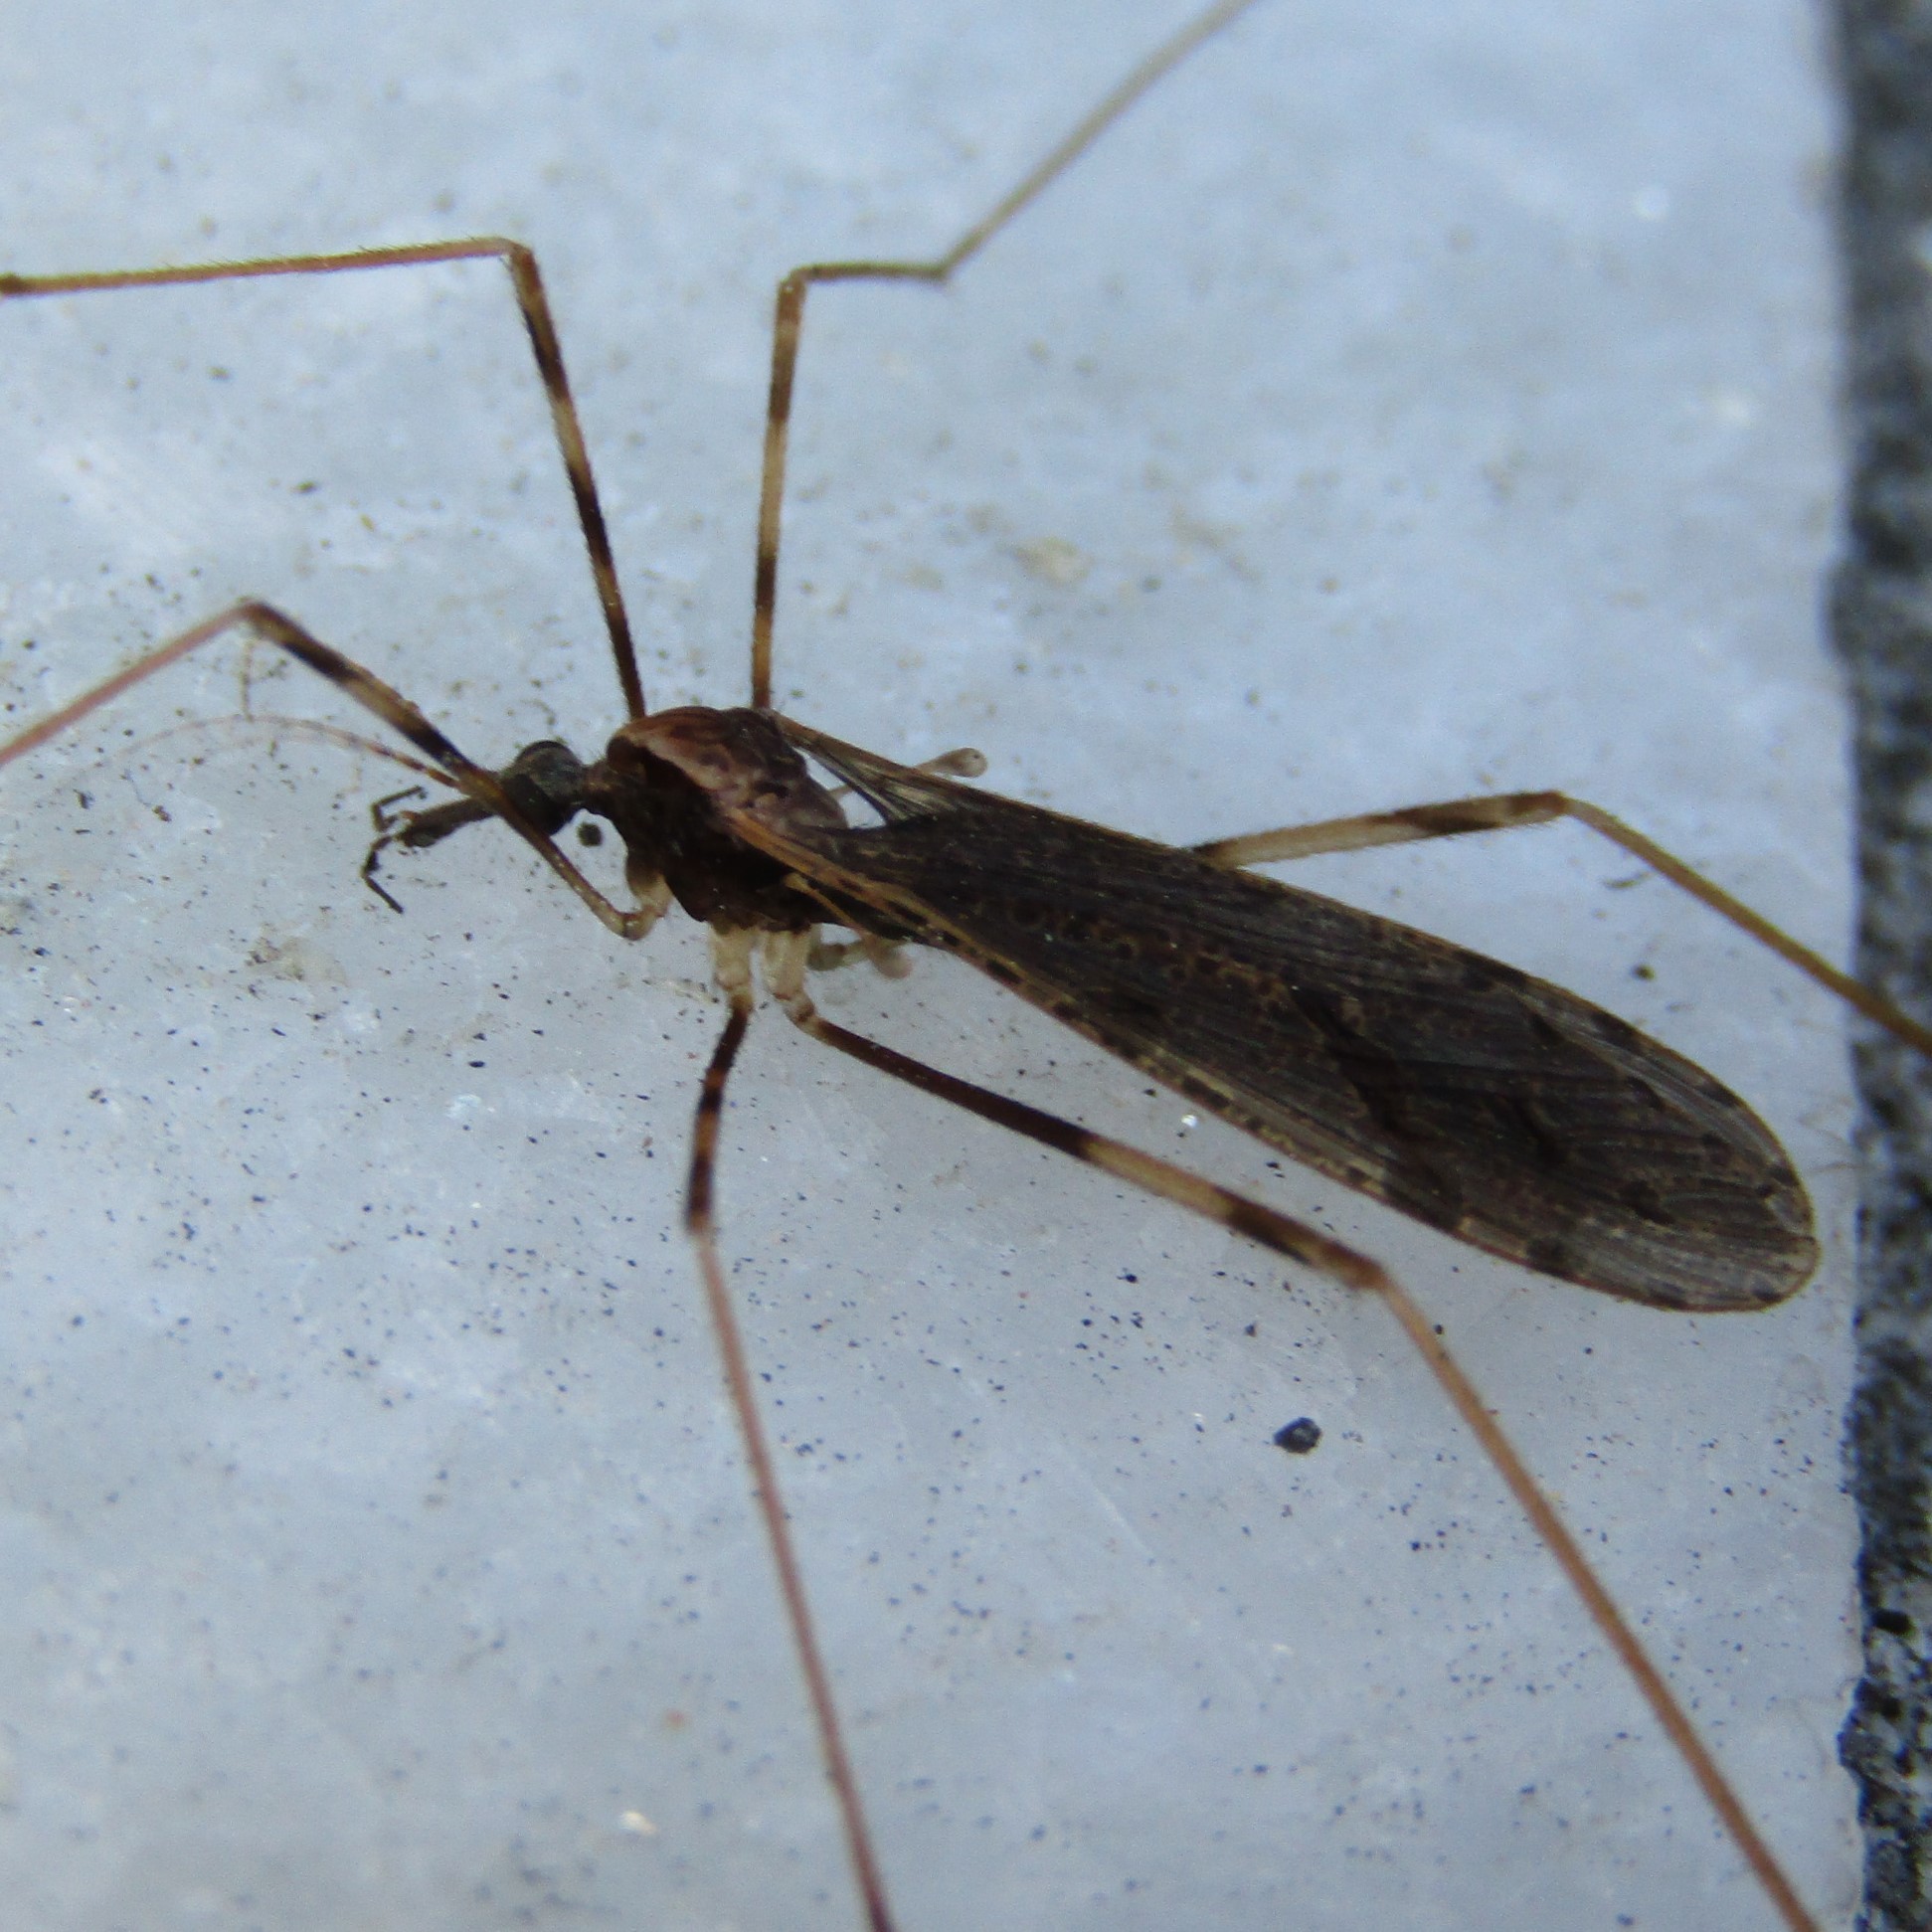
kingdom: Animalia
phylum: Arthropoda
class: Insecta
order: Diptera
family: Limoniidae
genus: Rhamphophila
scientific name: Rhamphophila sinistra
